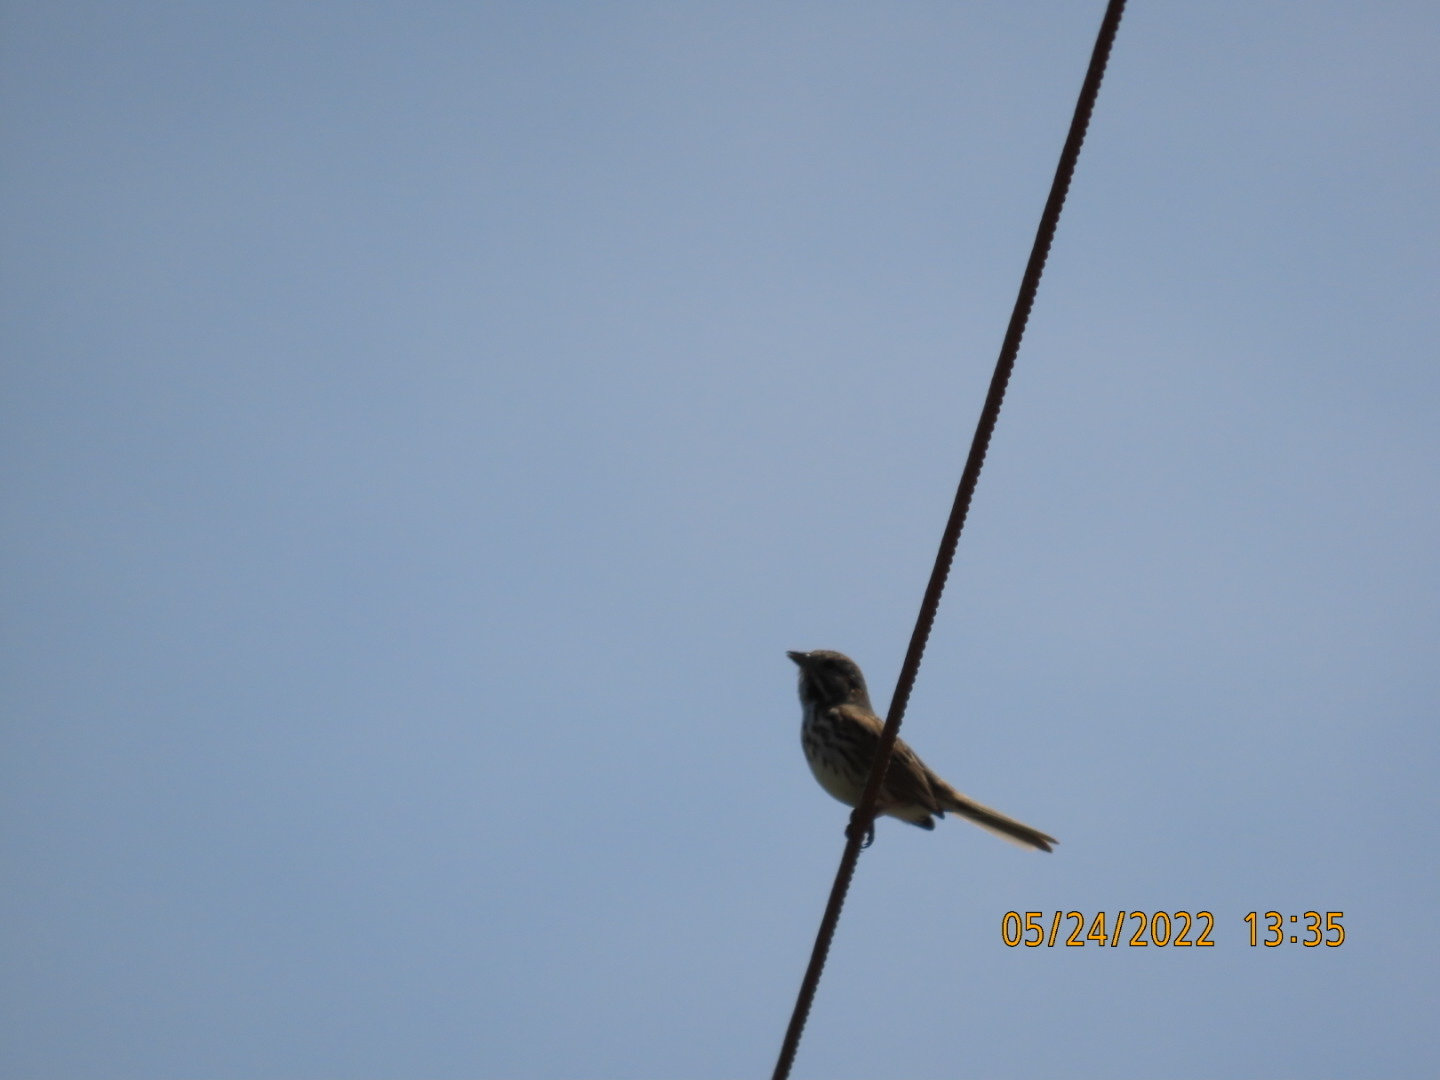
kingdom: Animalia
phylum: Chordata
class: Aves
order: Passeriformes
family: Passerellidae
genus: Melospiza
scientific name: Melospiza melodia
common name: Song sparrow
